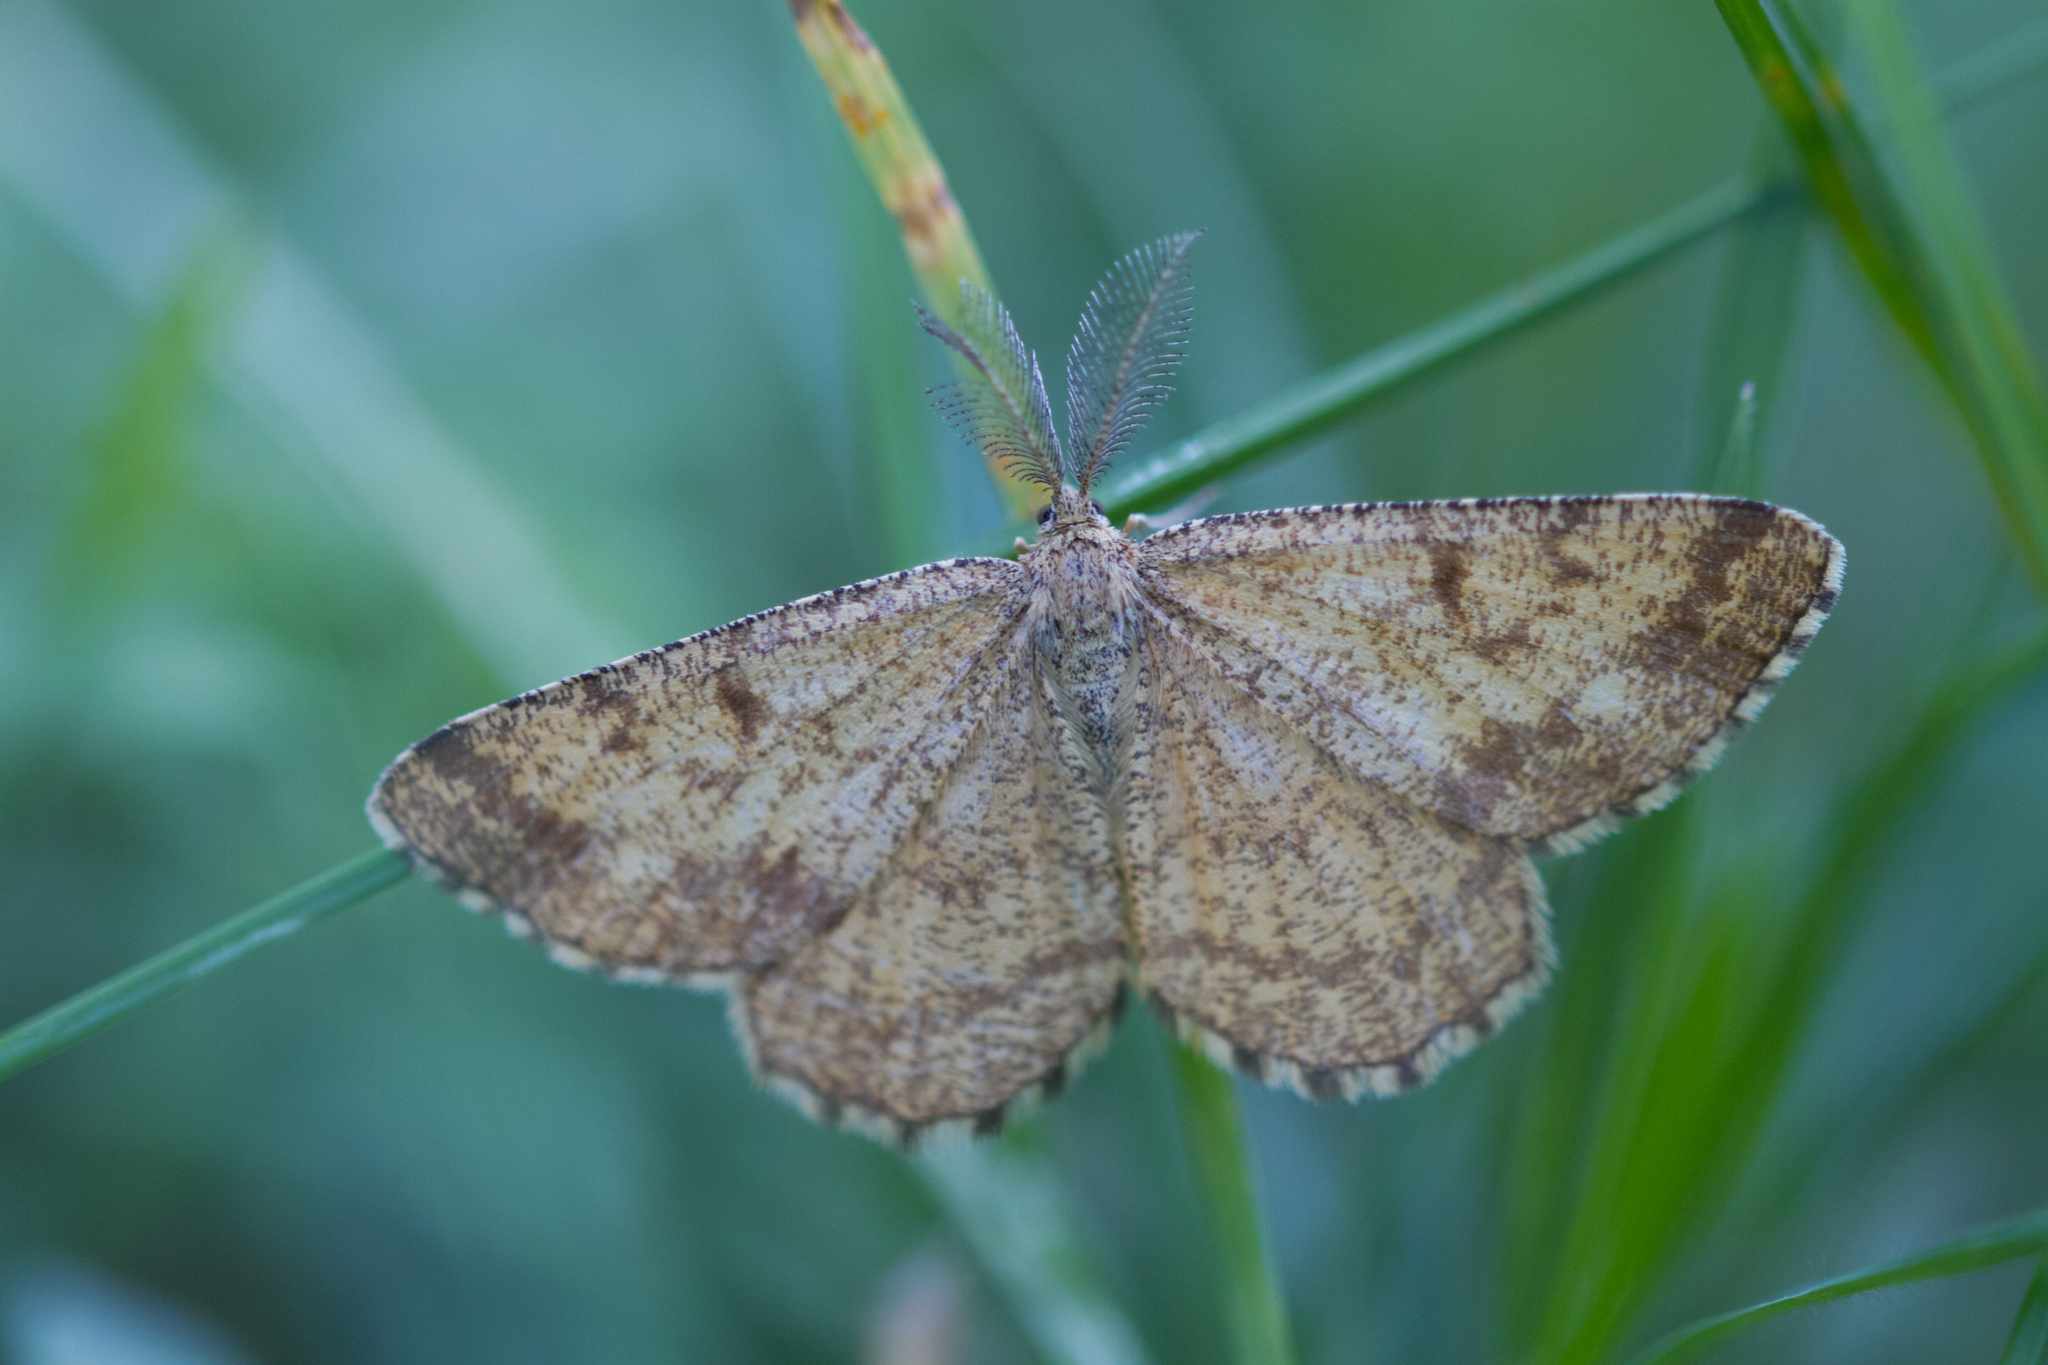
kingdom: Animalia
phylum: Arthropoda
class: Insecta
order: Lepidoptera
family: Geometridae
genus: Ematurga
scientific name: Ematurga atomaria
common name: Common heath
